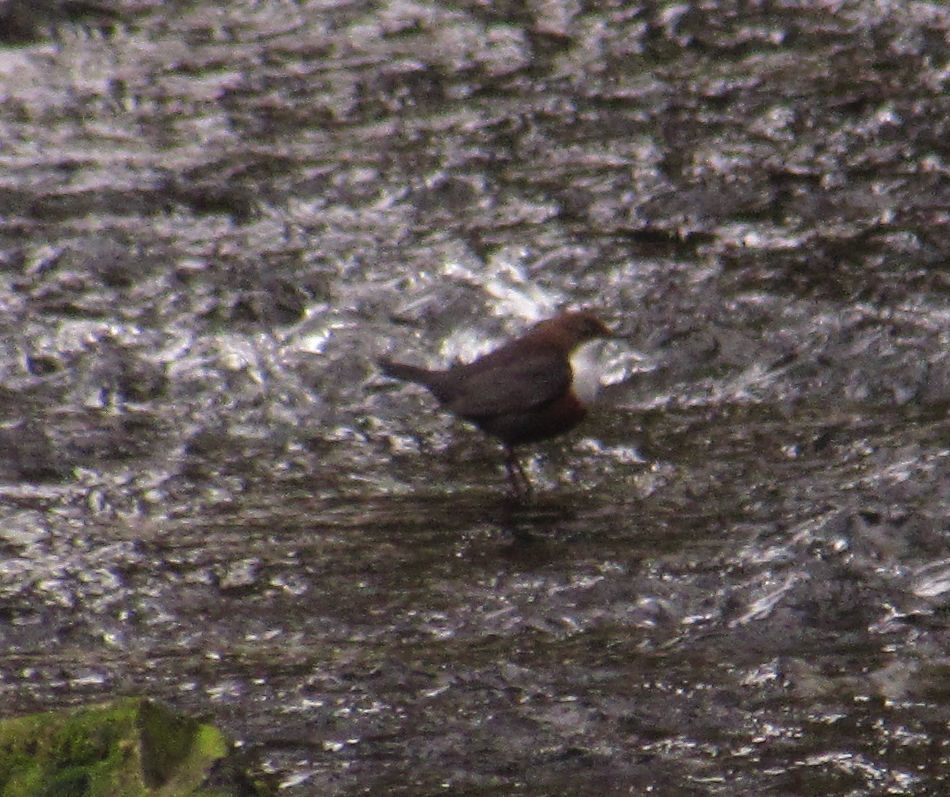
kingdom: Animalia
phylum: Chordata
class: Aves
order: Passeriformes
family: Cinclidae
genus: Cinclus
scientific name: Cinclus cinclus
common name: White-throated dipper
